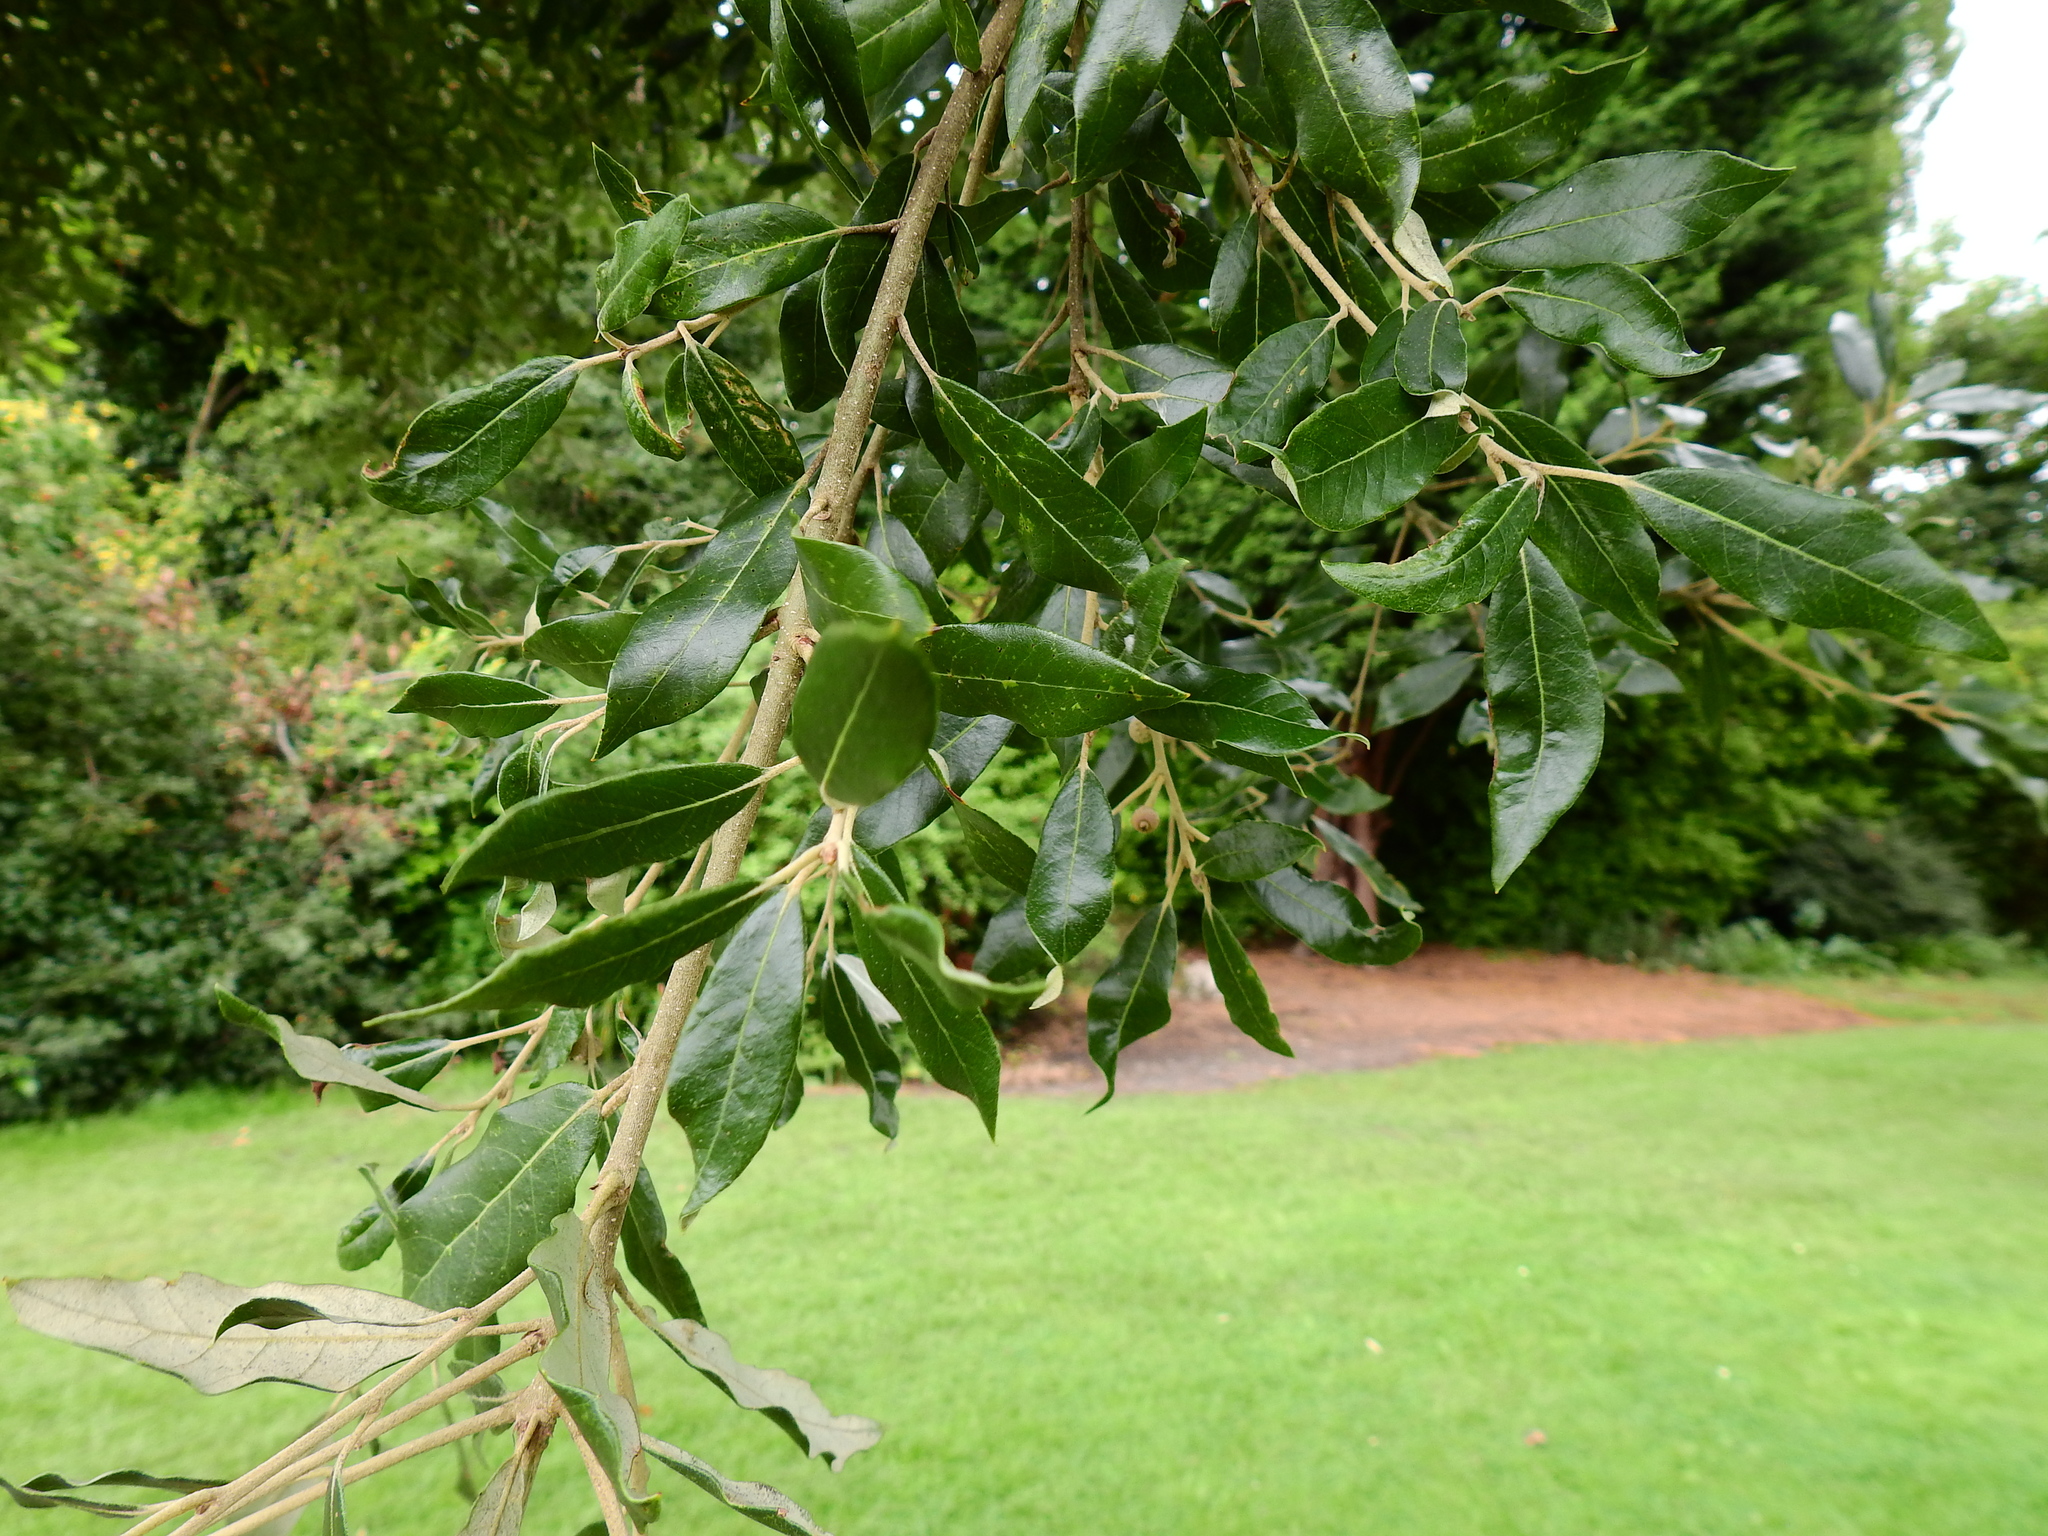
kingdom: Plantae
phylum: Tracheophyta
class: Magnoliopsida
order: Fagales
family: Fagaceae
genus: Quercus
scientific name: Quercus ilex
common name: Evergreen oak
